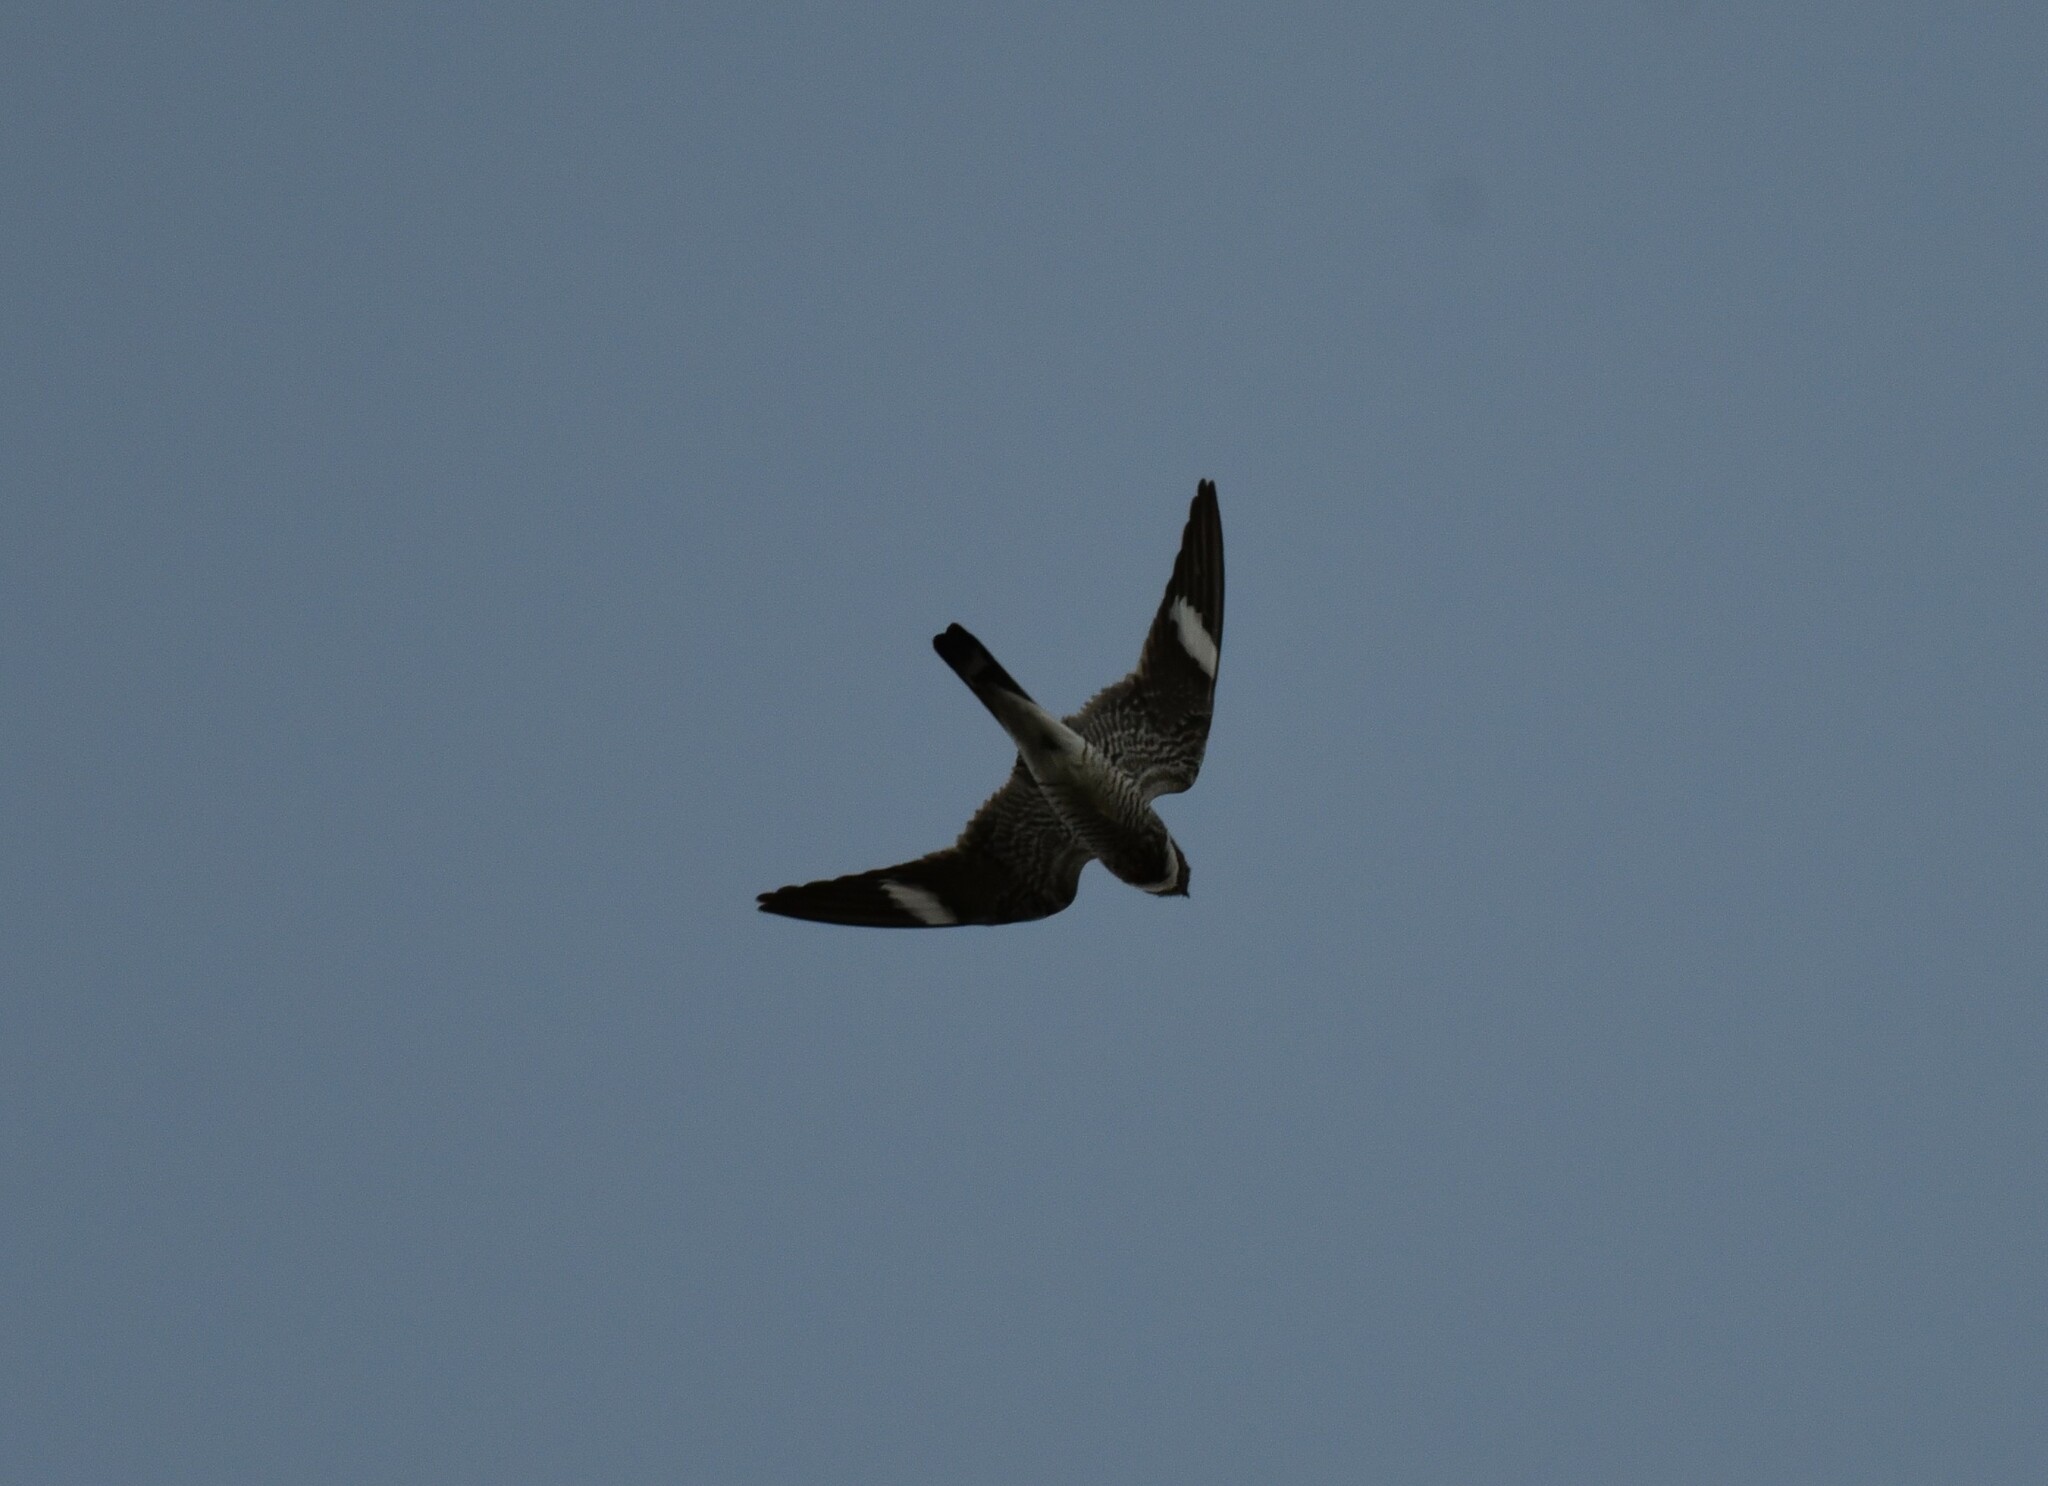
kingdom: Animalia
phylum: Chordata
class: Aves
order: Caprimulgiformes
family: Caprimulgidae
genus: Chordeiles
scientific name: Chordeiles minor
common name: Common nighthawk
